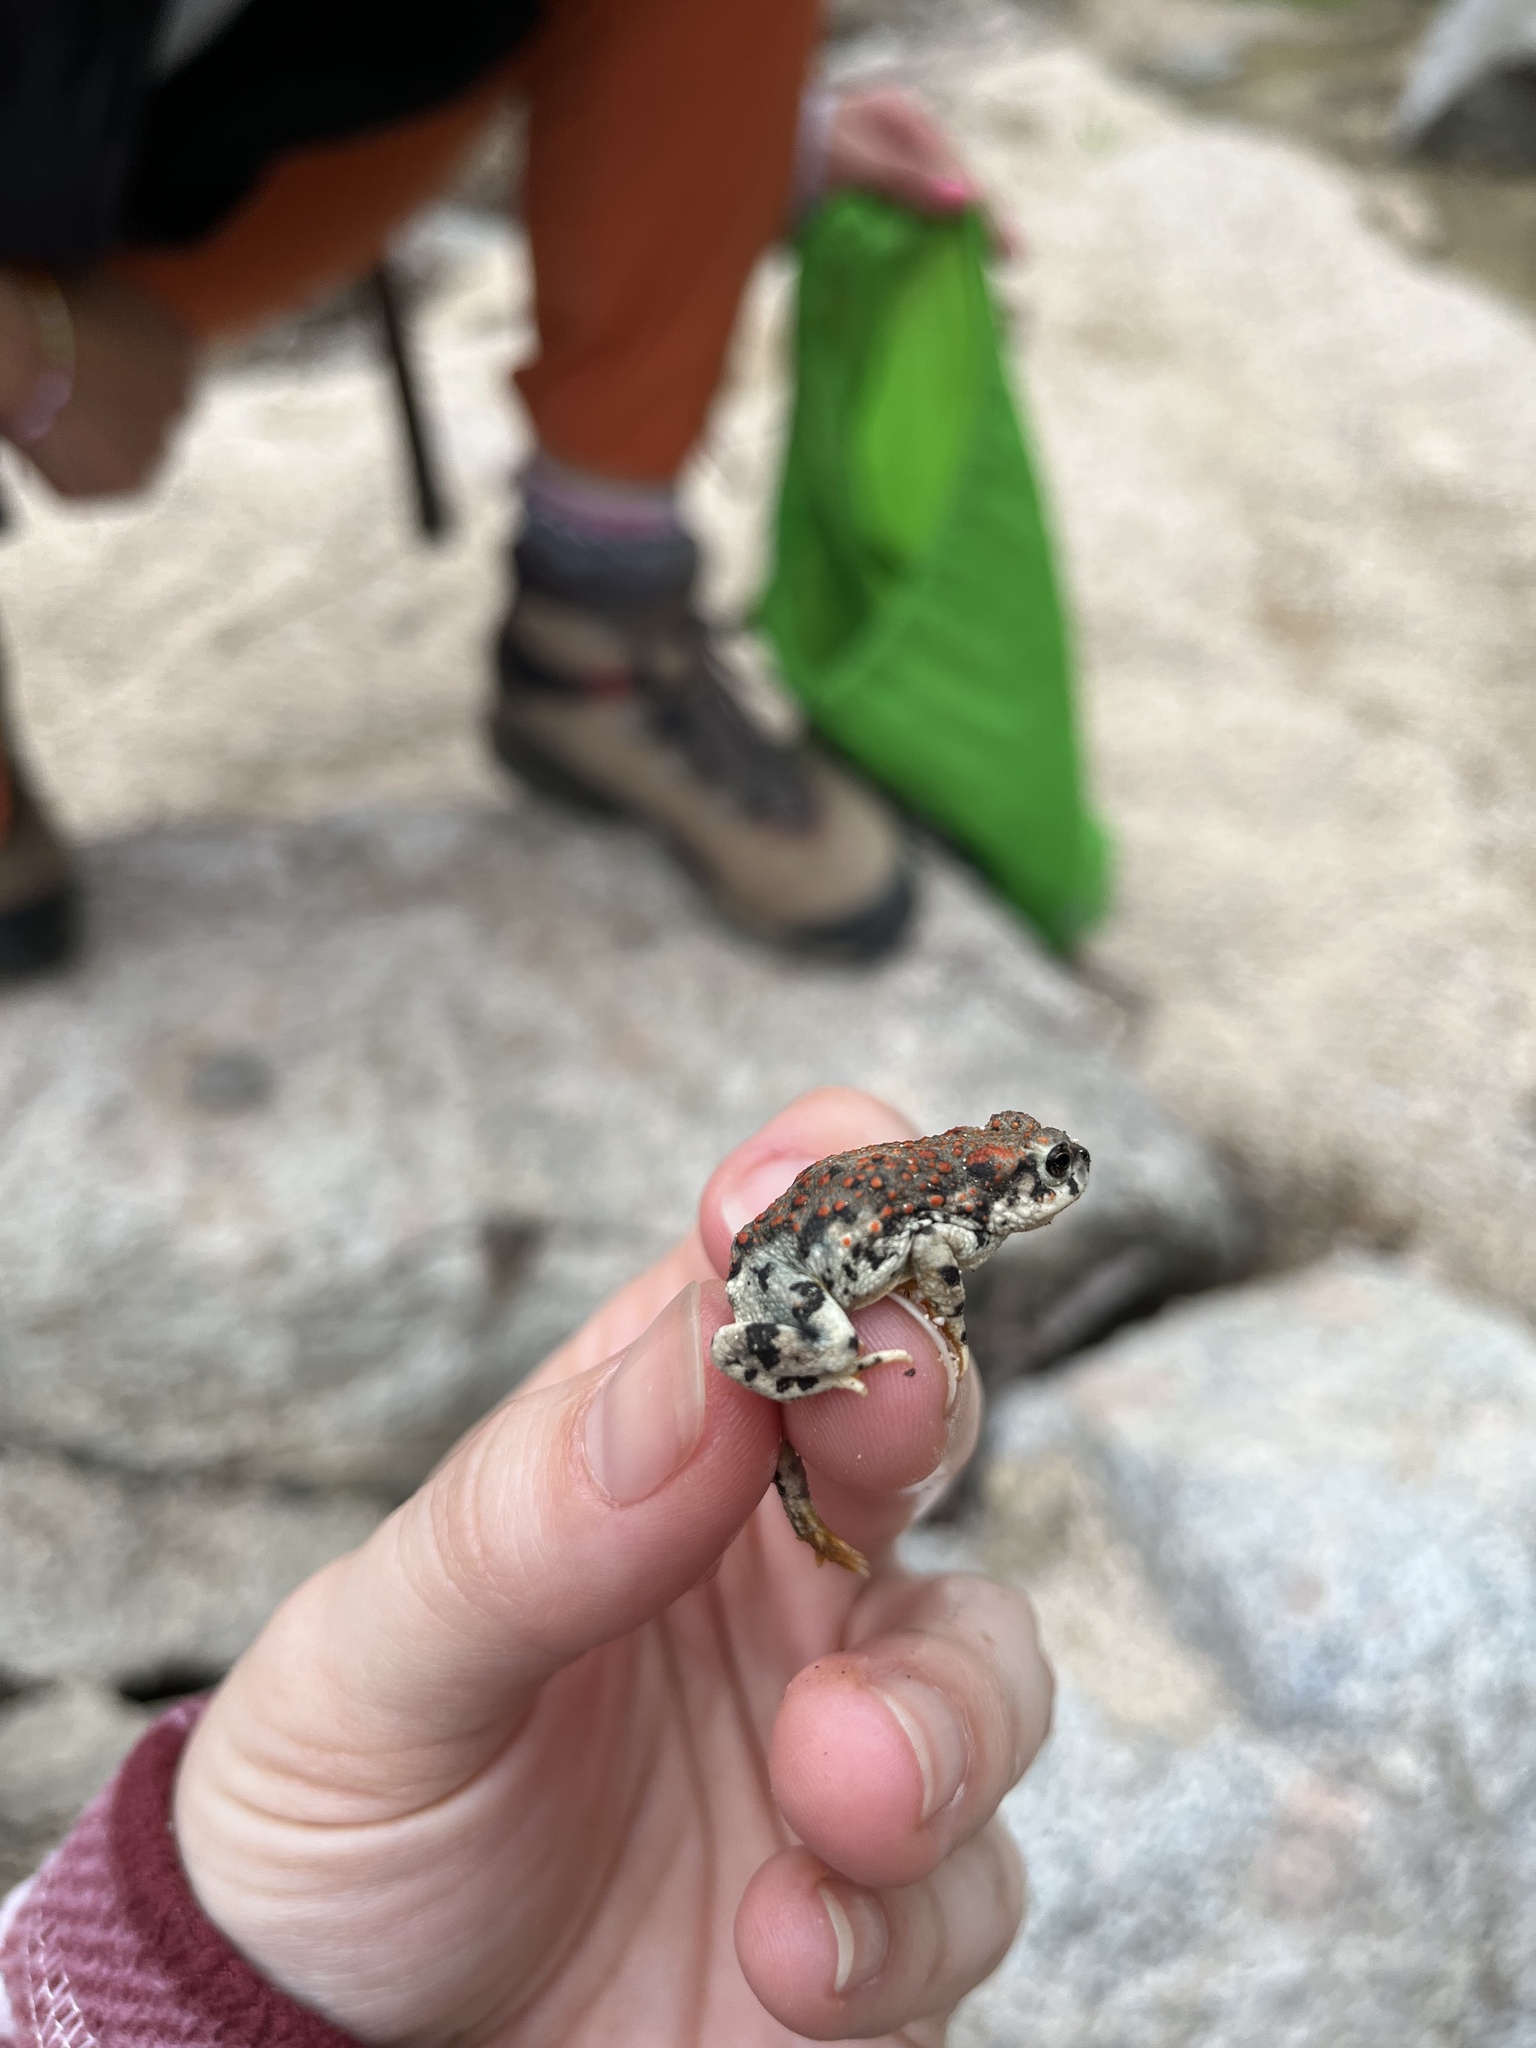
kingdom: Animalia
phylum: Chordata
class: Amphibia
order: Anura
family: Bufonidae
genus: Anaxyrus
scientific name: Anaxyrus punctatus
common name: Red-spotted toad
